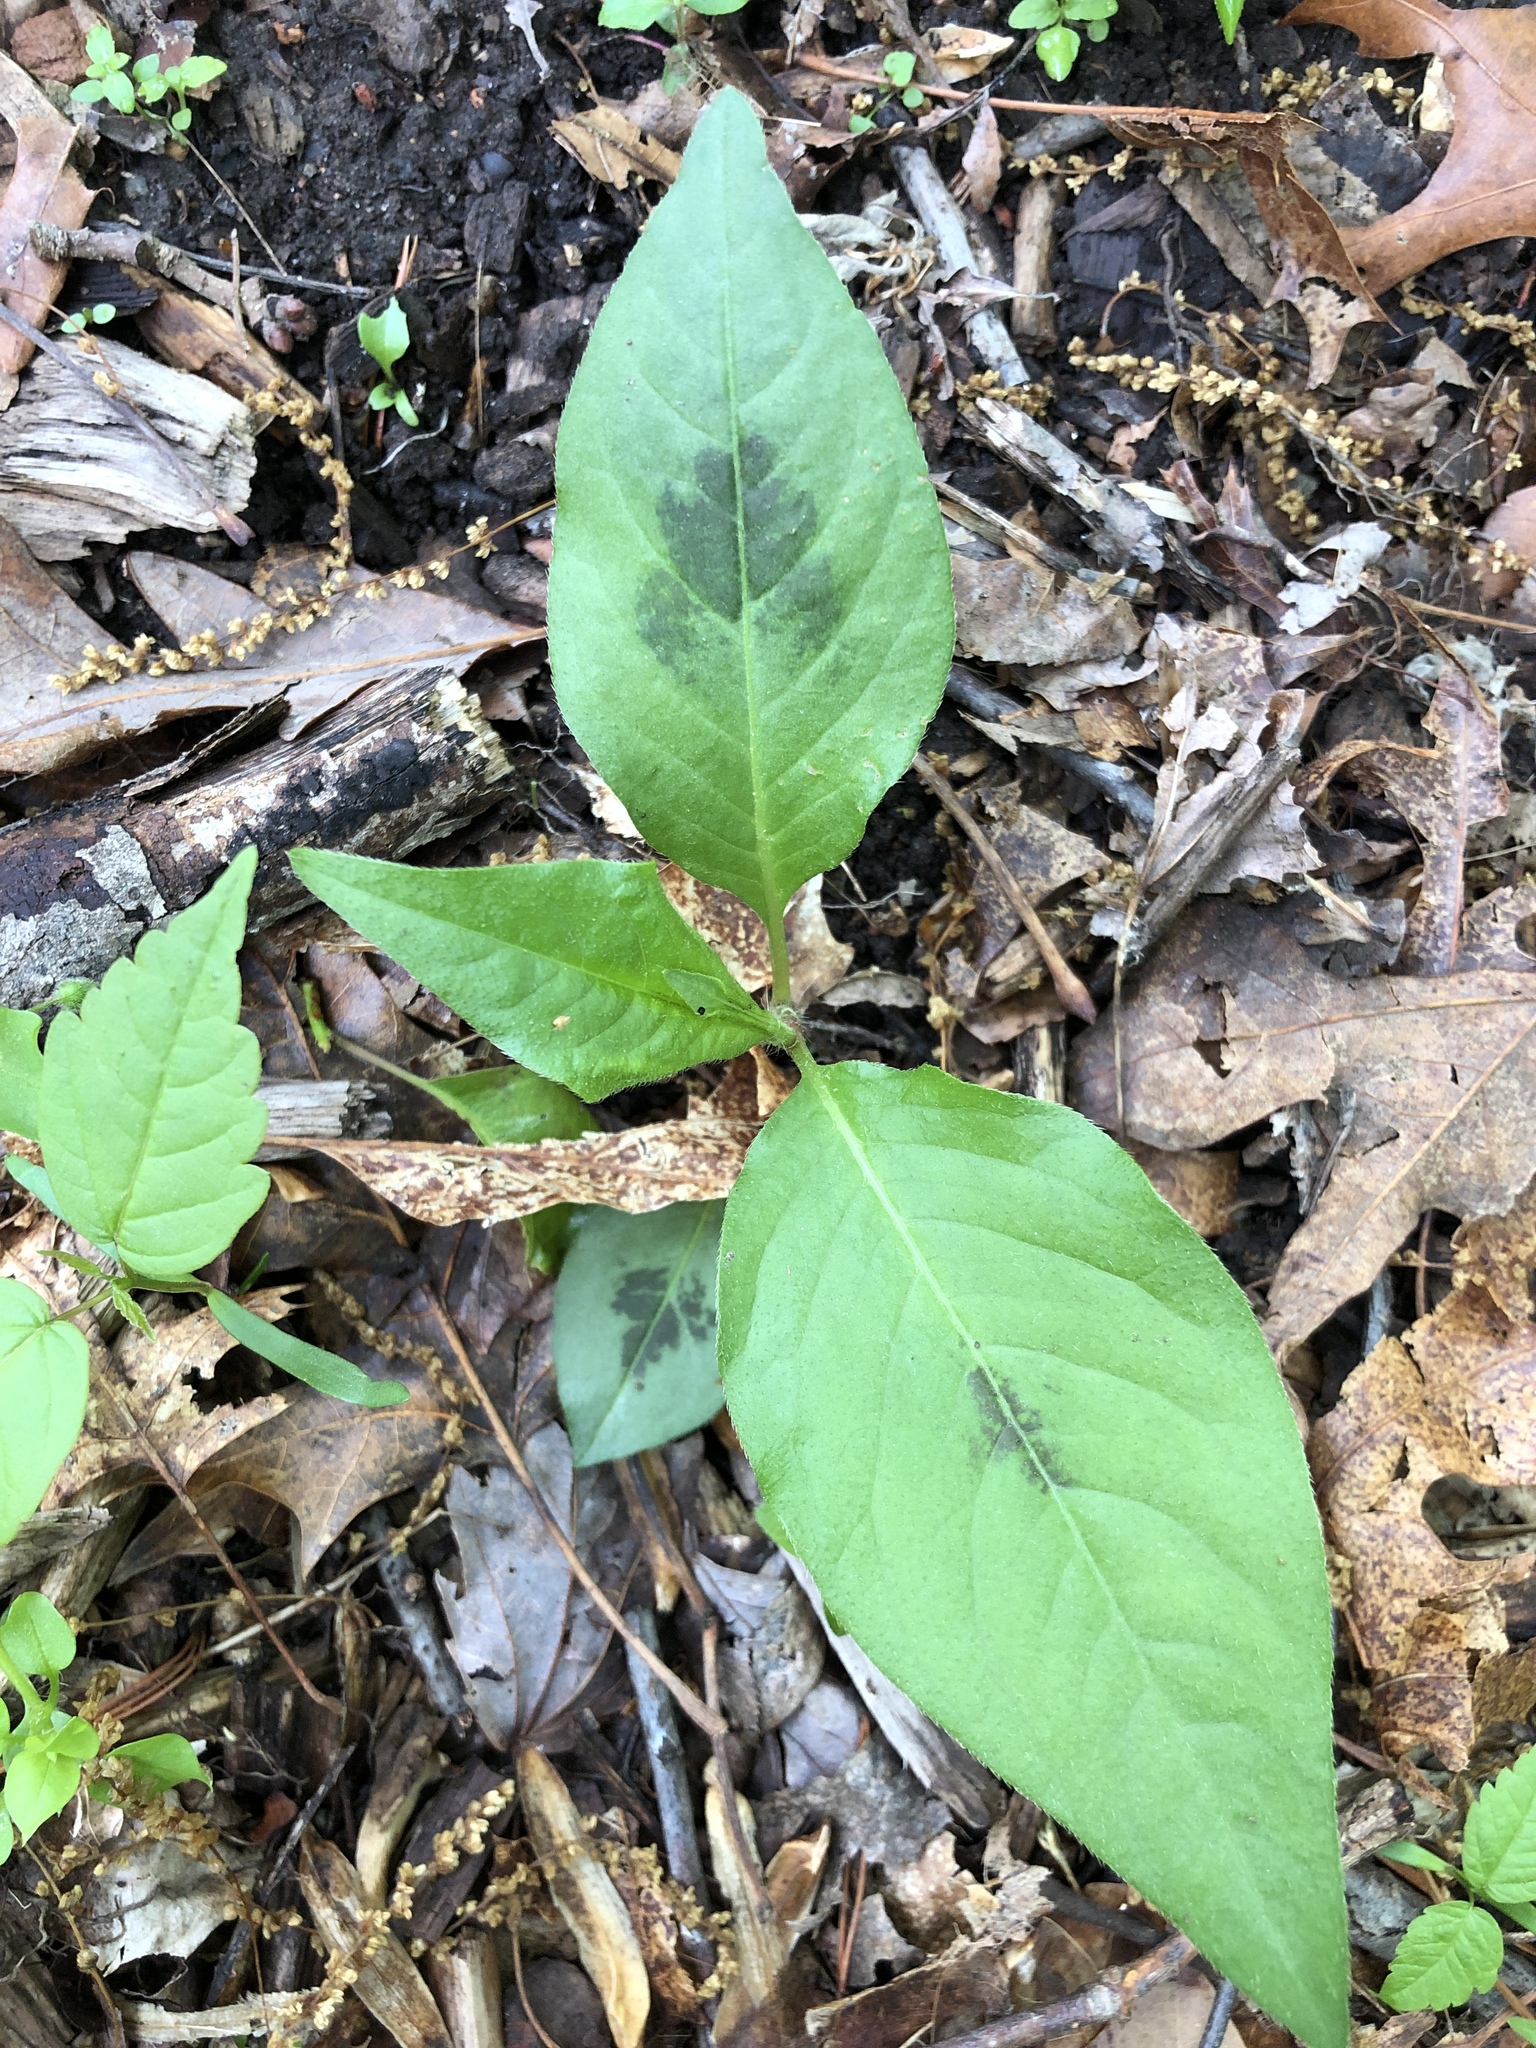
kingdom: Plantae
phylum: Tracheophyta
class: Magnoliopsida
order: Caryophyllales
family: Polygonaceae
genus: Persicaria
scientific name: Persicaria virginiana
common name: Jumpseed
